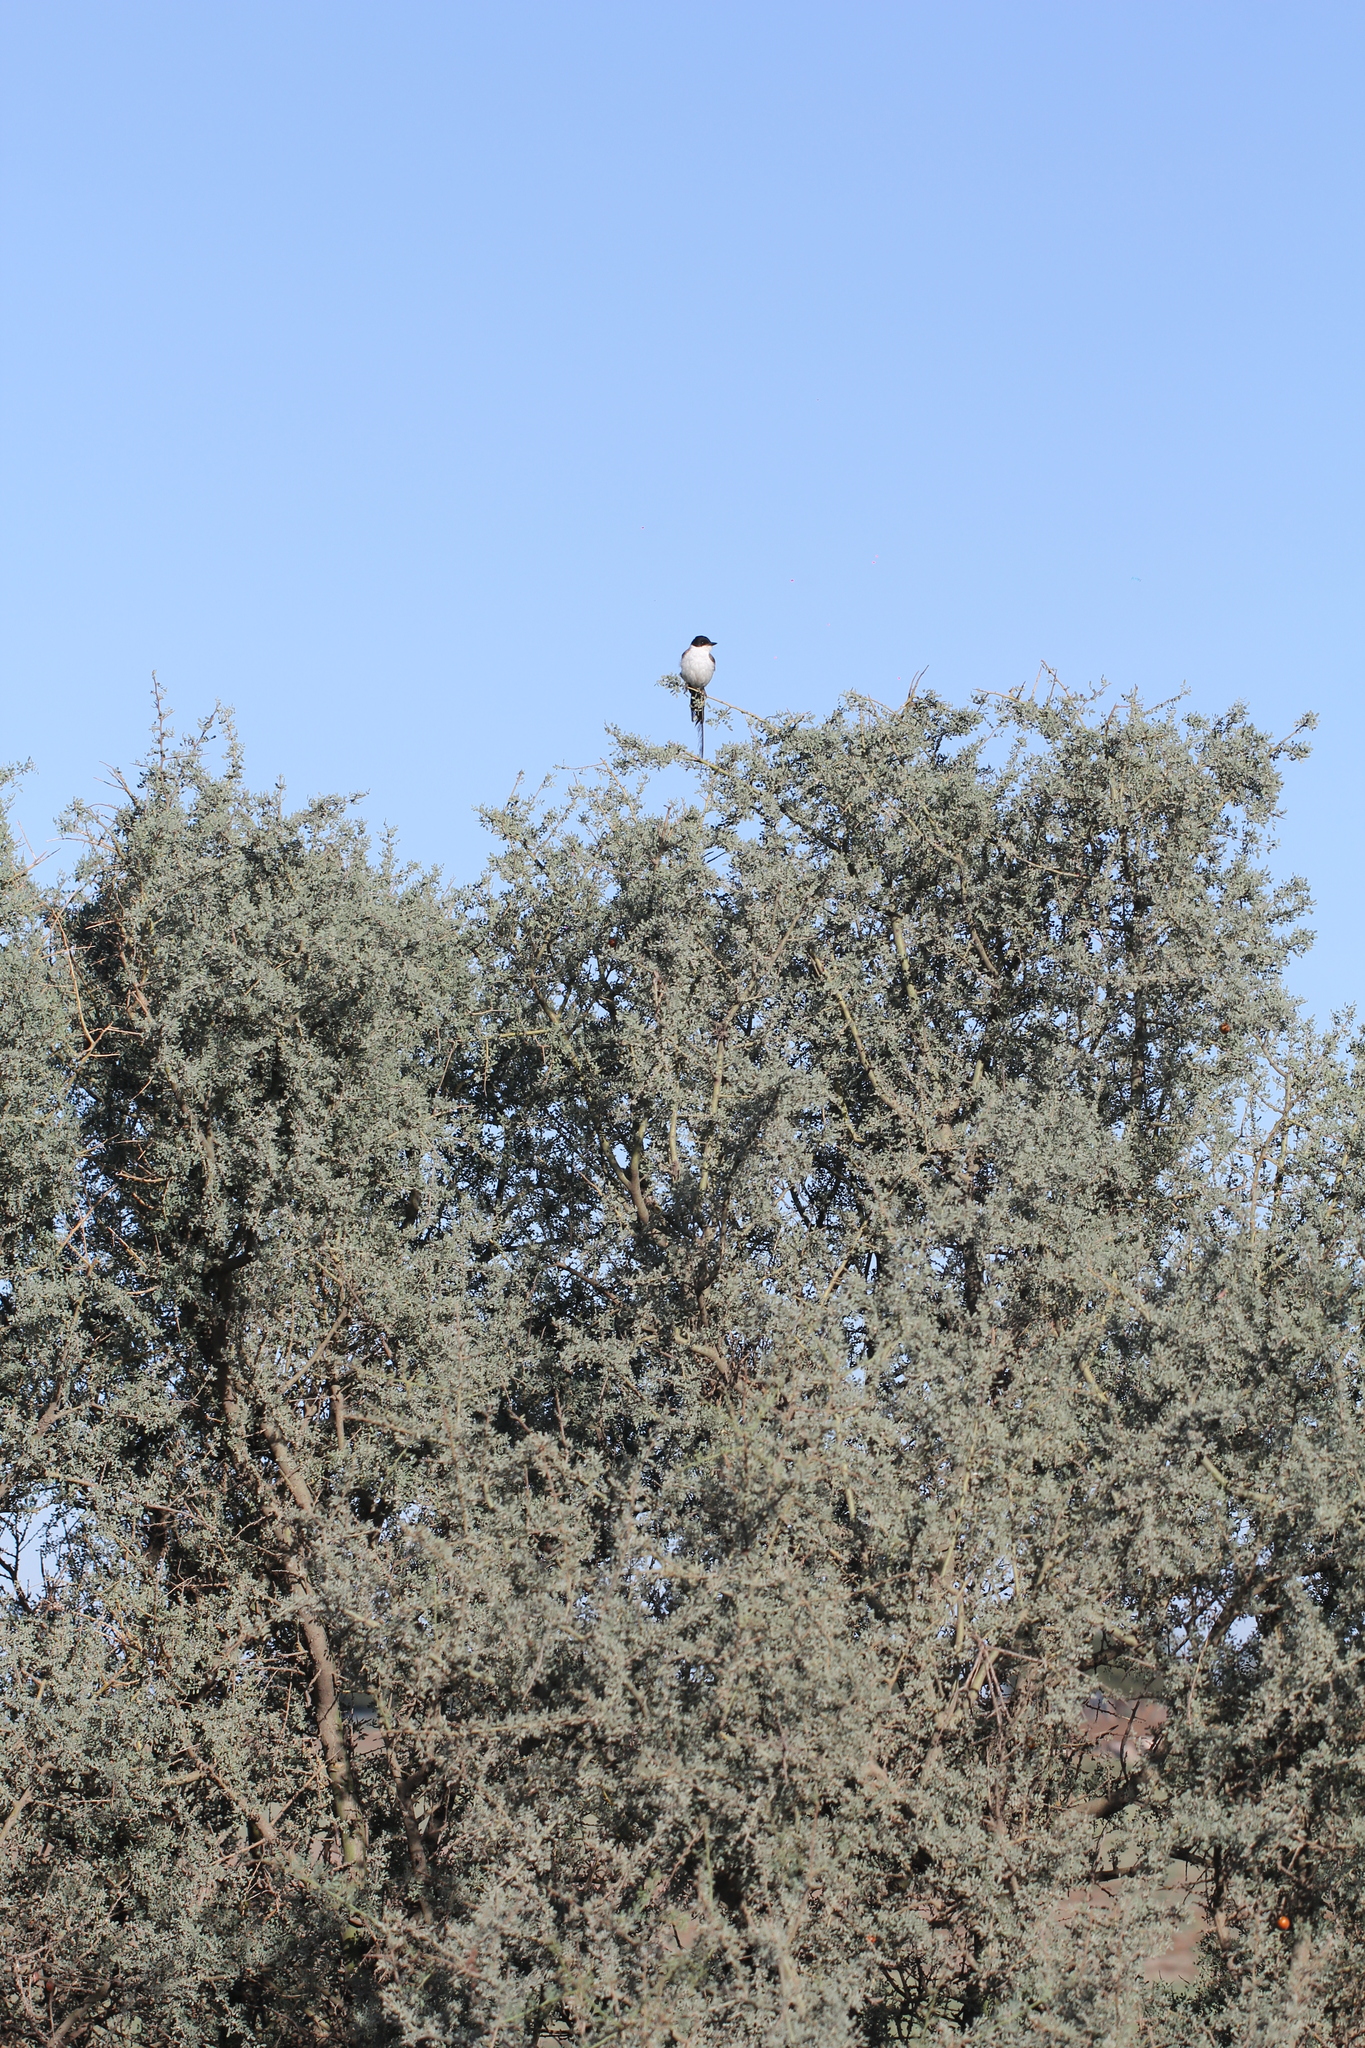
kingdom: Animalia
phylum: Chordata
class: Aves
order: Passeriformes
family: Tyrannidae
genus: Tyrannus
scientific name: Tyrannus savana
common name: Fork-tailed flycatcher
